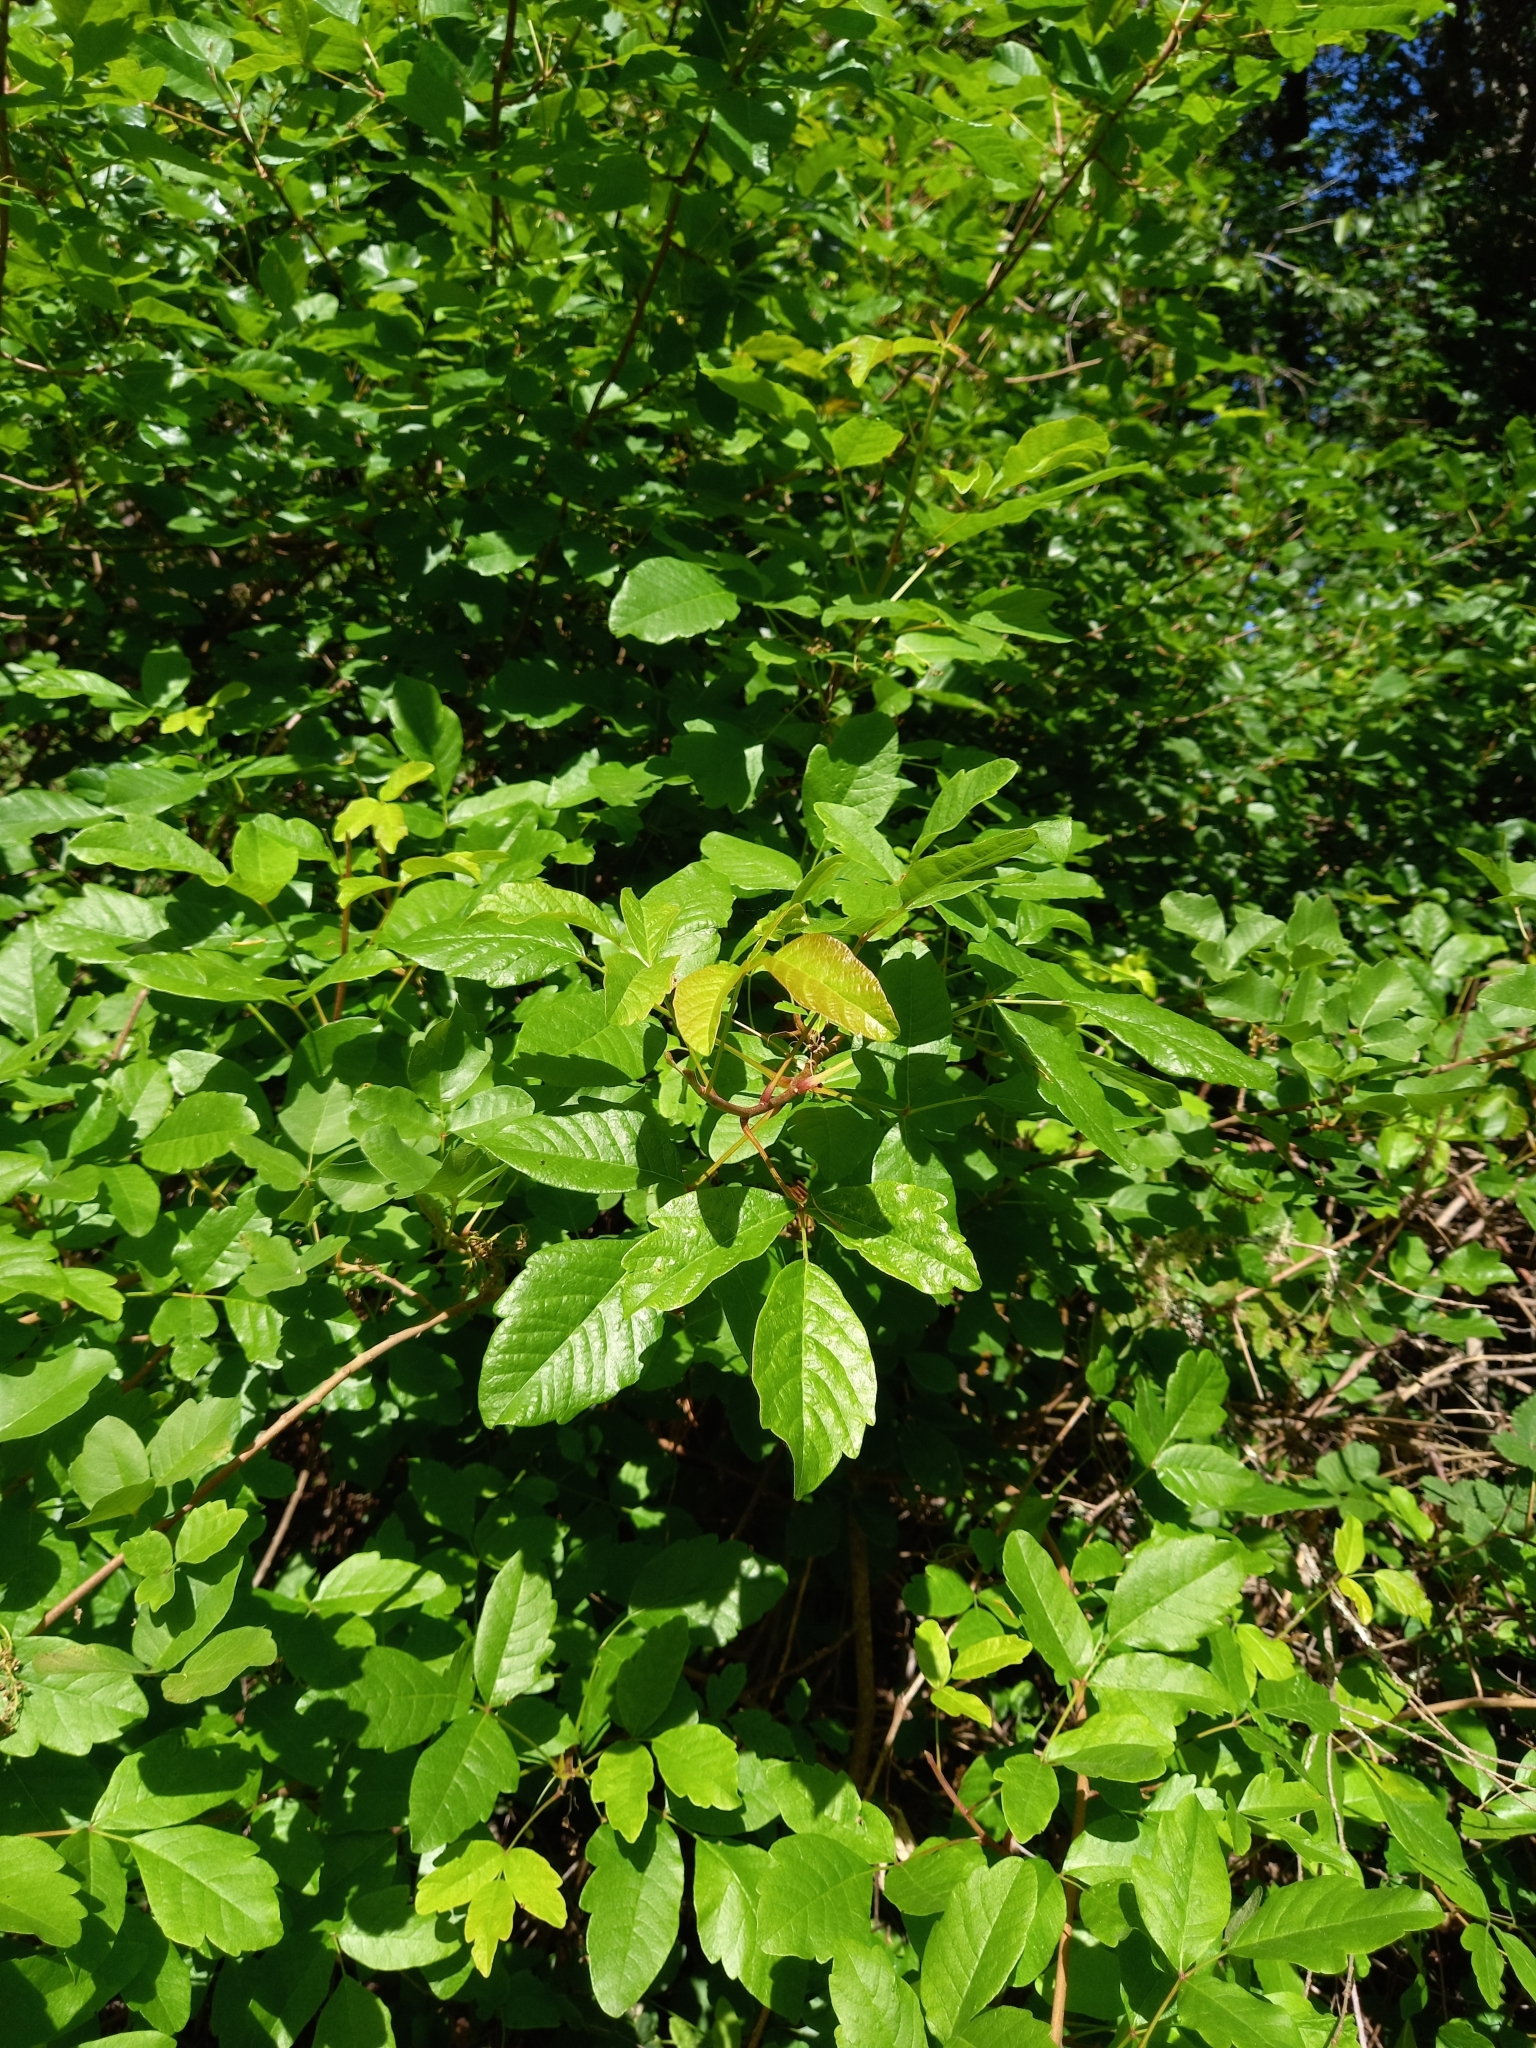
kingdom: Plantae
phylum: Tracheophyta
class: Magnoliopsida
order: Sapindales
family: Anacardiaceae
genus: Toxicodendron
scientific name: Toxicodendron diversilobum
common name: Pacific poison-oak
